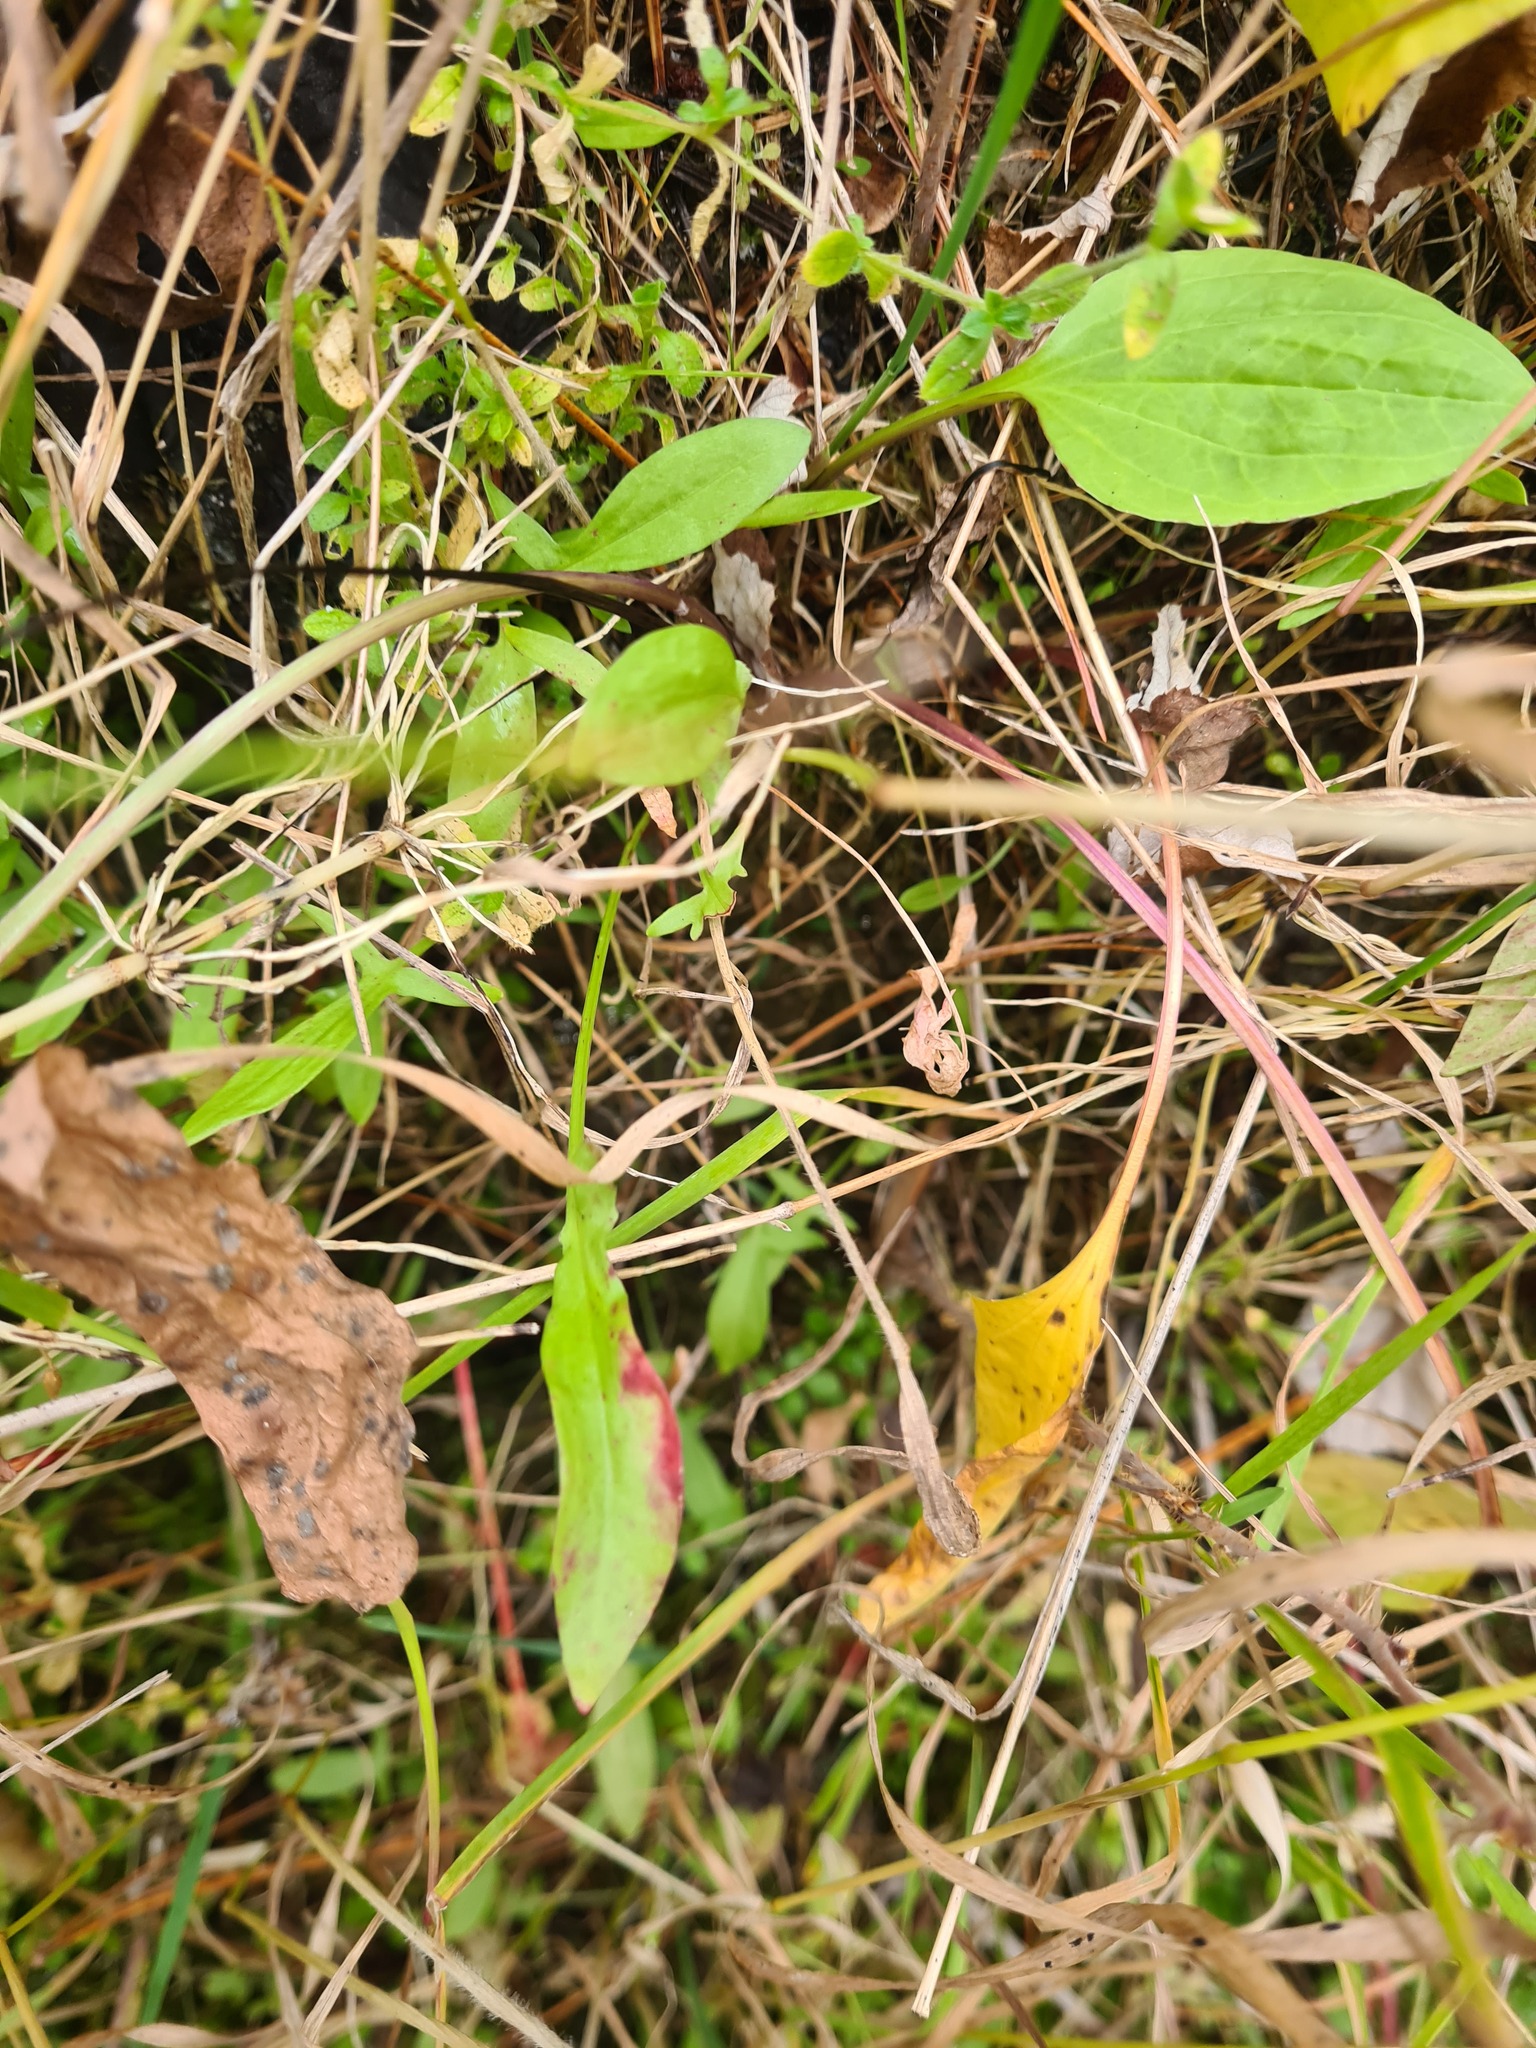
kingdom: Plantae
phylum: Tracheophyta
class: Magnoliopsida
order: Caryophyllales
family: Polygonaceae
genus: Rumex
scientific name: Rumex acetosella
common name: Common sheep sorrel
